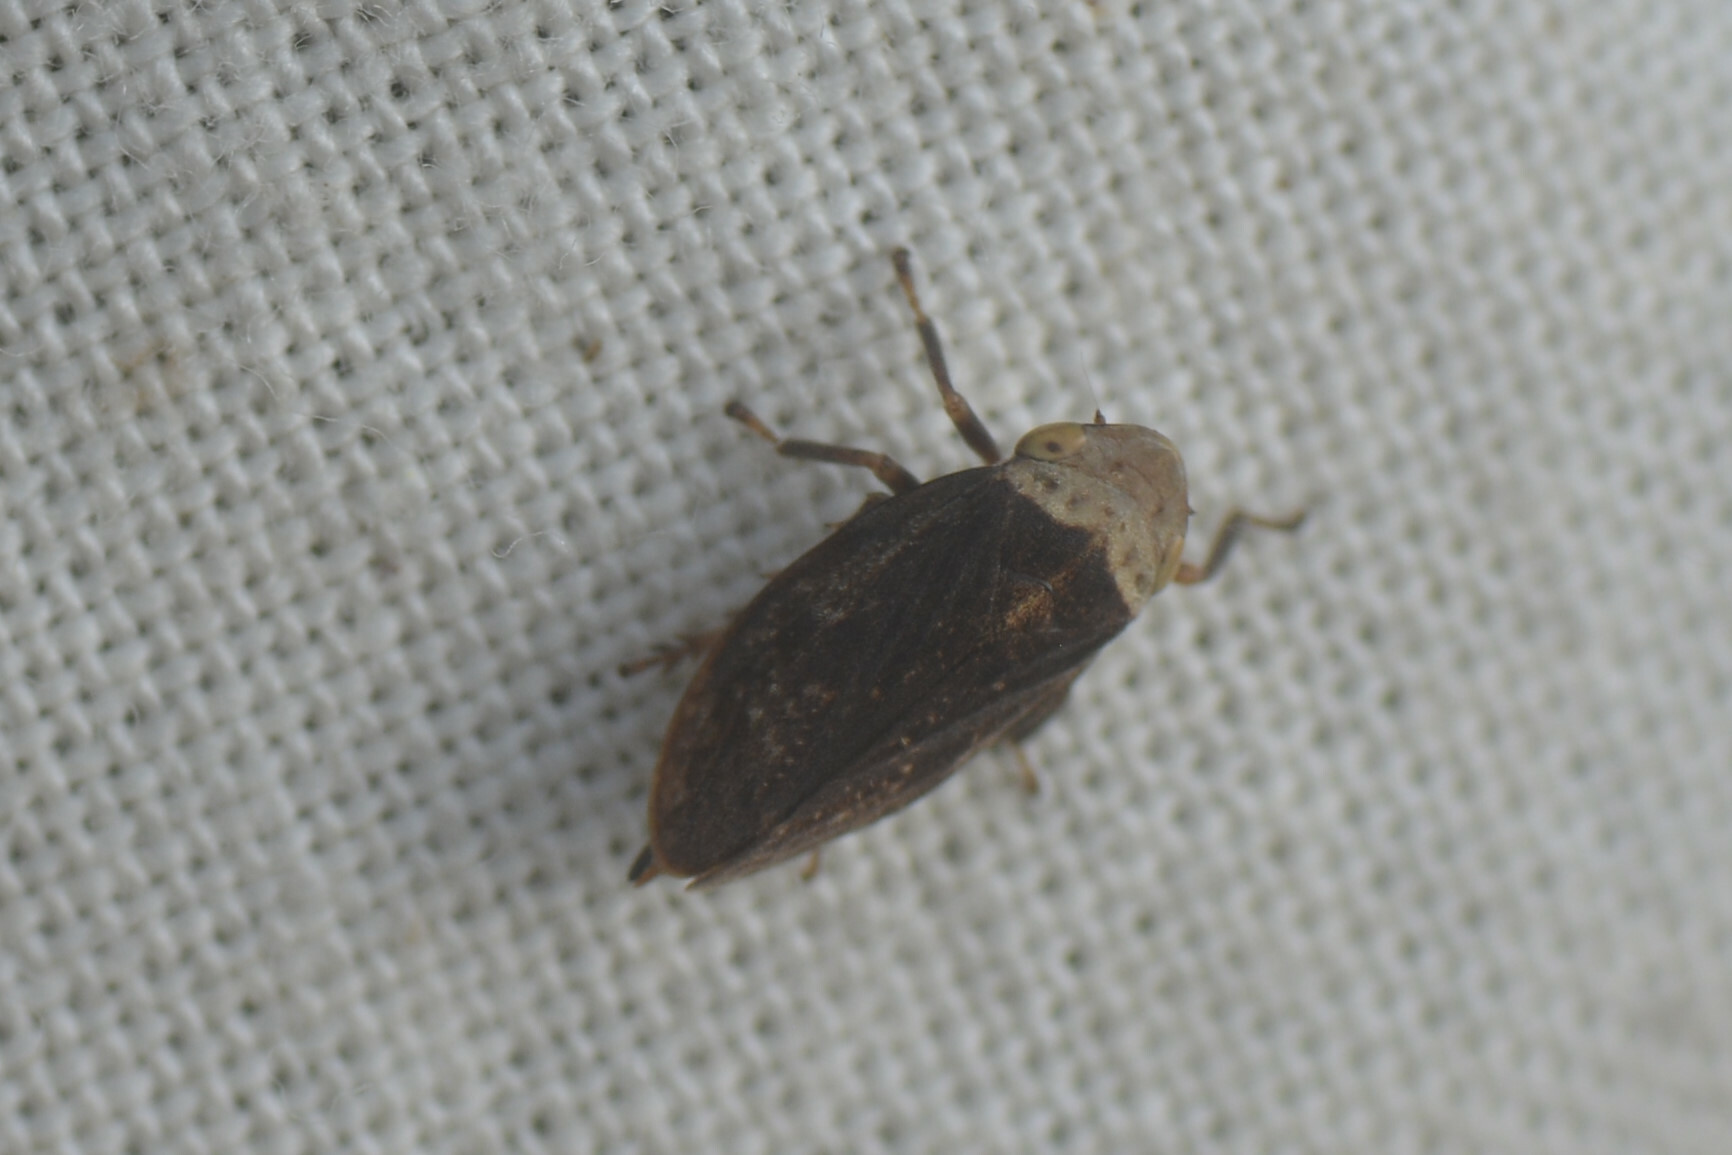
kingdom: Animalia
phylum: Arthropoda
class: Insecta
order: Hemiptera
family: Aphrophoridae
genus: Philaenus
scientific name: Philaenus spumarius
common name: Meadow spittlebug
